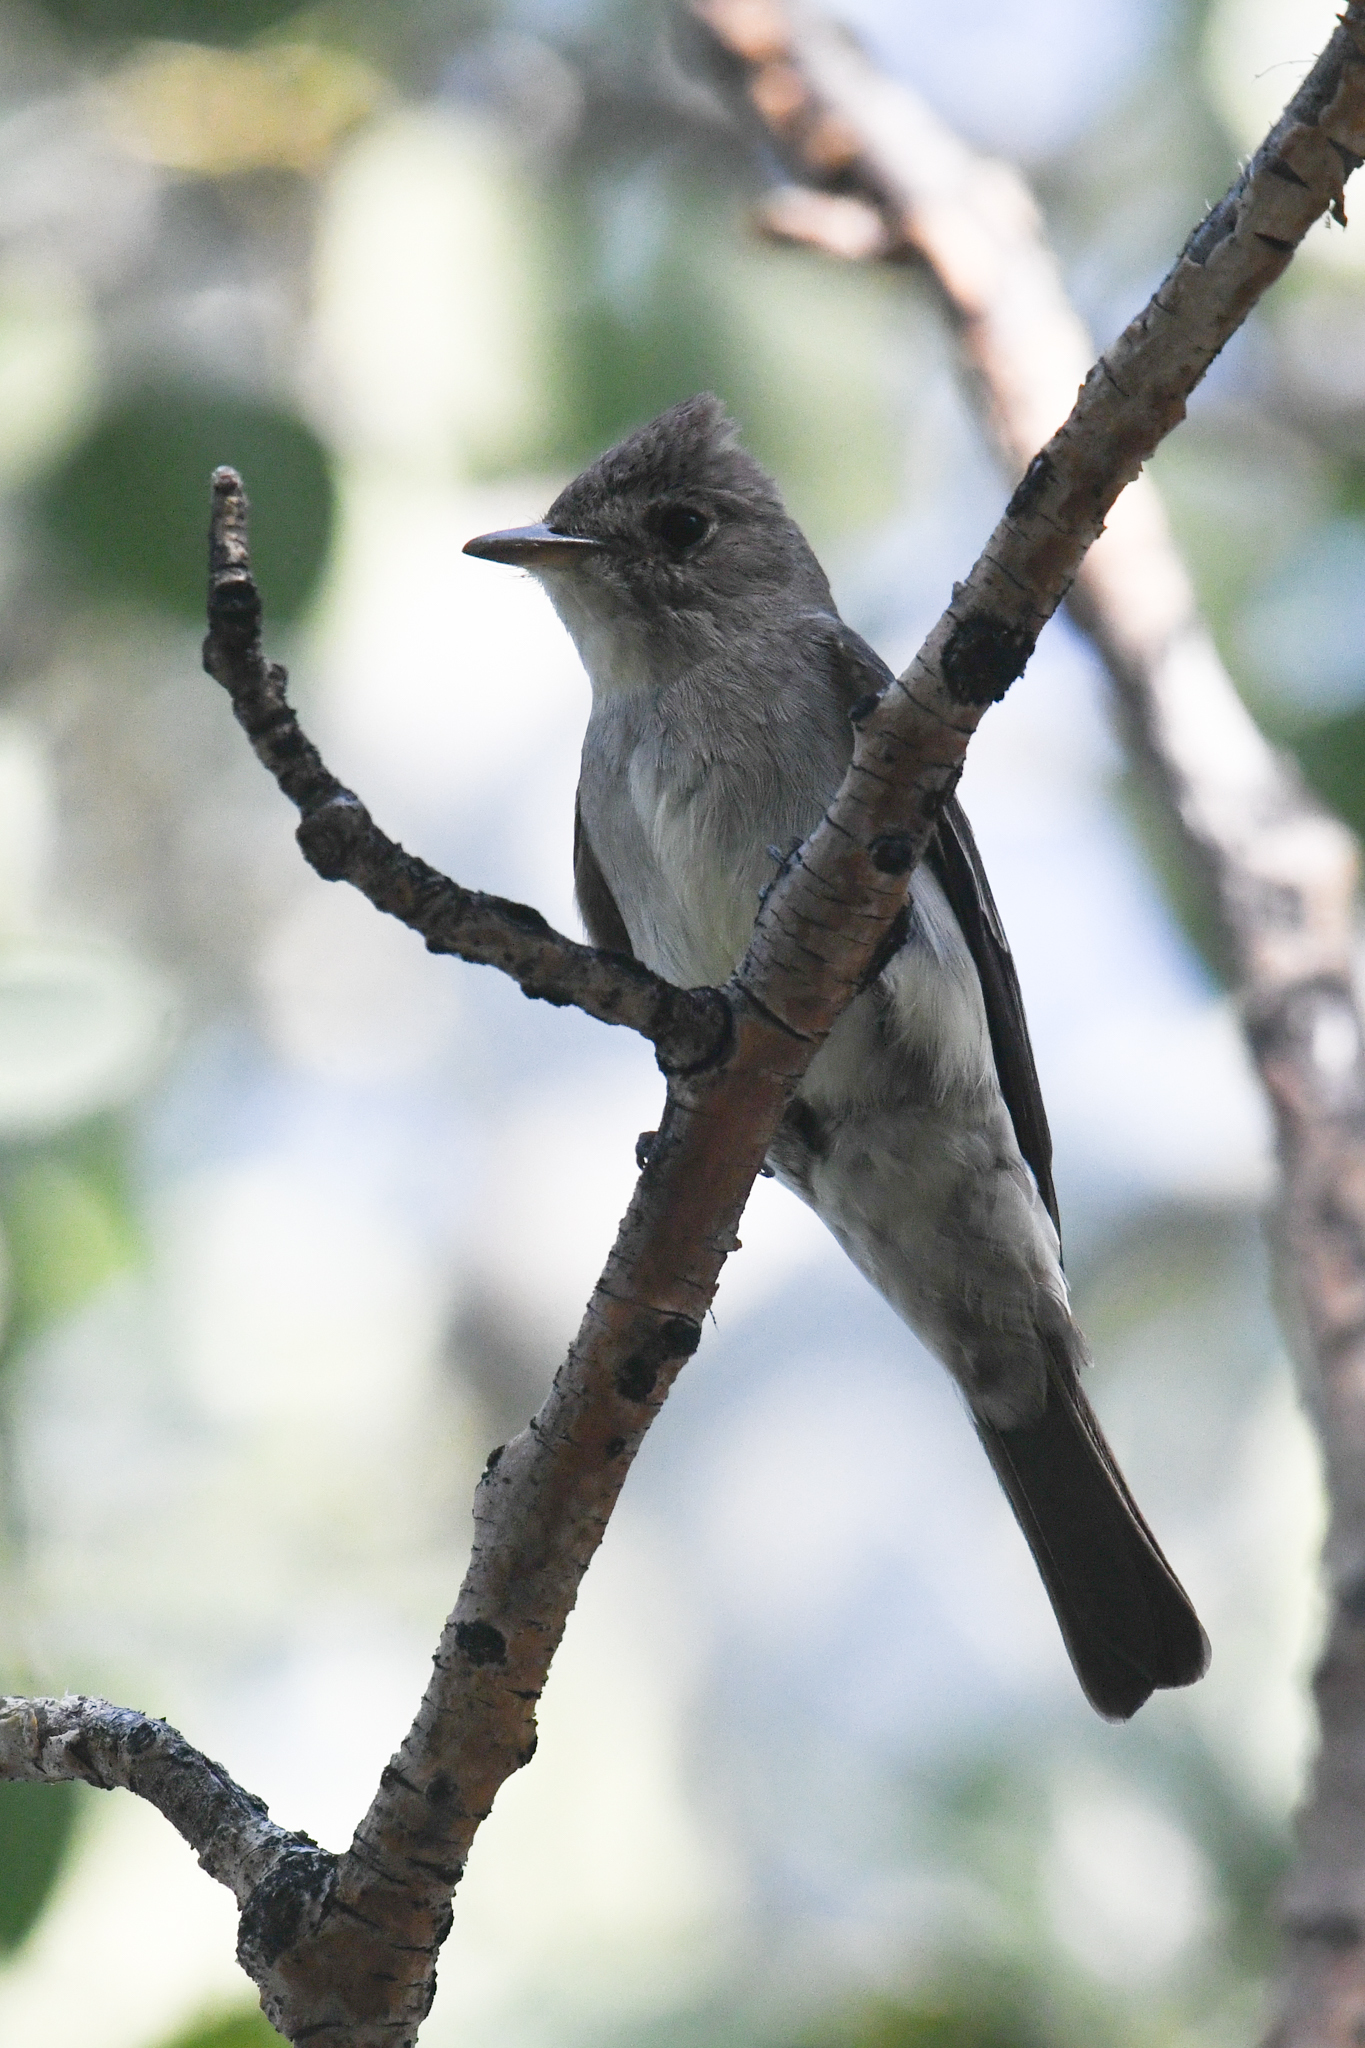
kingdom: Animalia
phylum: Chordata
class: Aves
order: Passeriformes
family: Tyrannidae
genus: Contopus
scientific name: Contopus sordidulus
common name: Western wood-pewee
